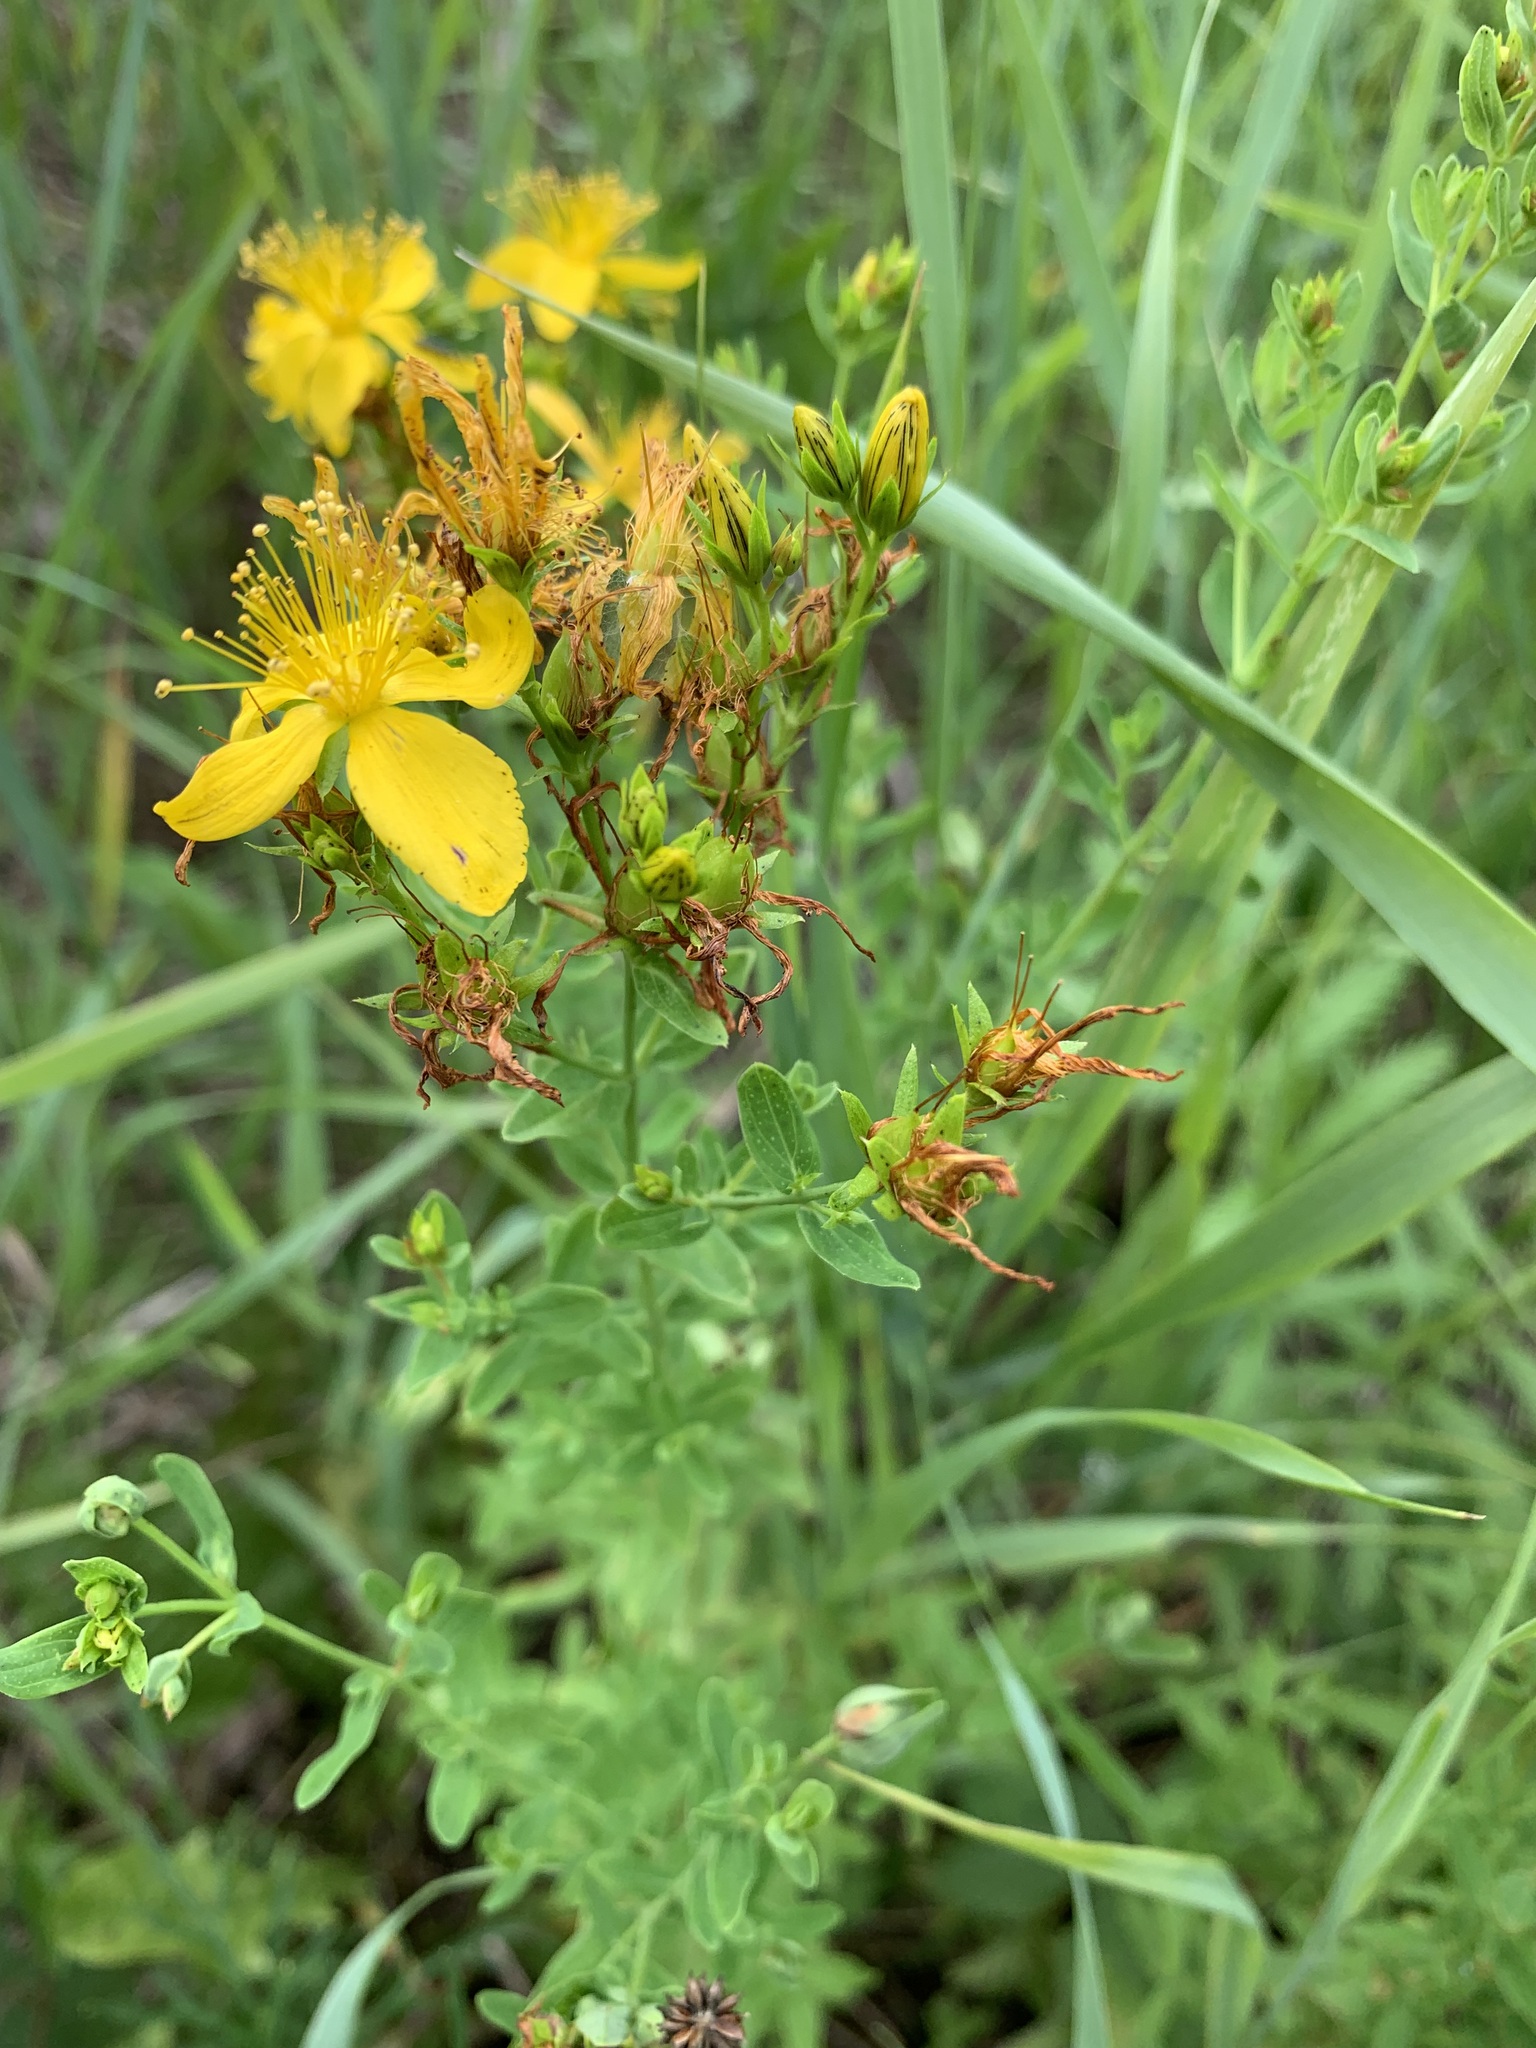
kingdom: Plantae
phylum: Tracheophyta
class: Magnoliopsida
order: Malpighiales
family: Hypericaceae
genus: Hypericum
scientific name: Hypericum perforatum
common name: Common st. johnswort
